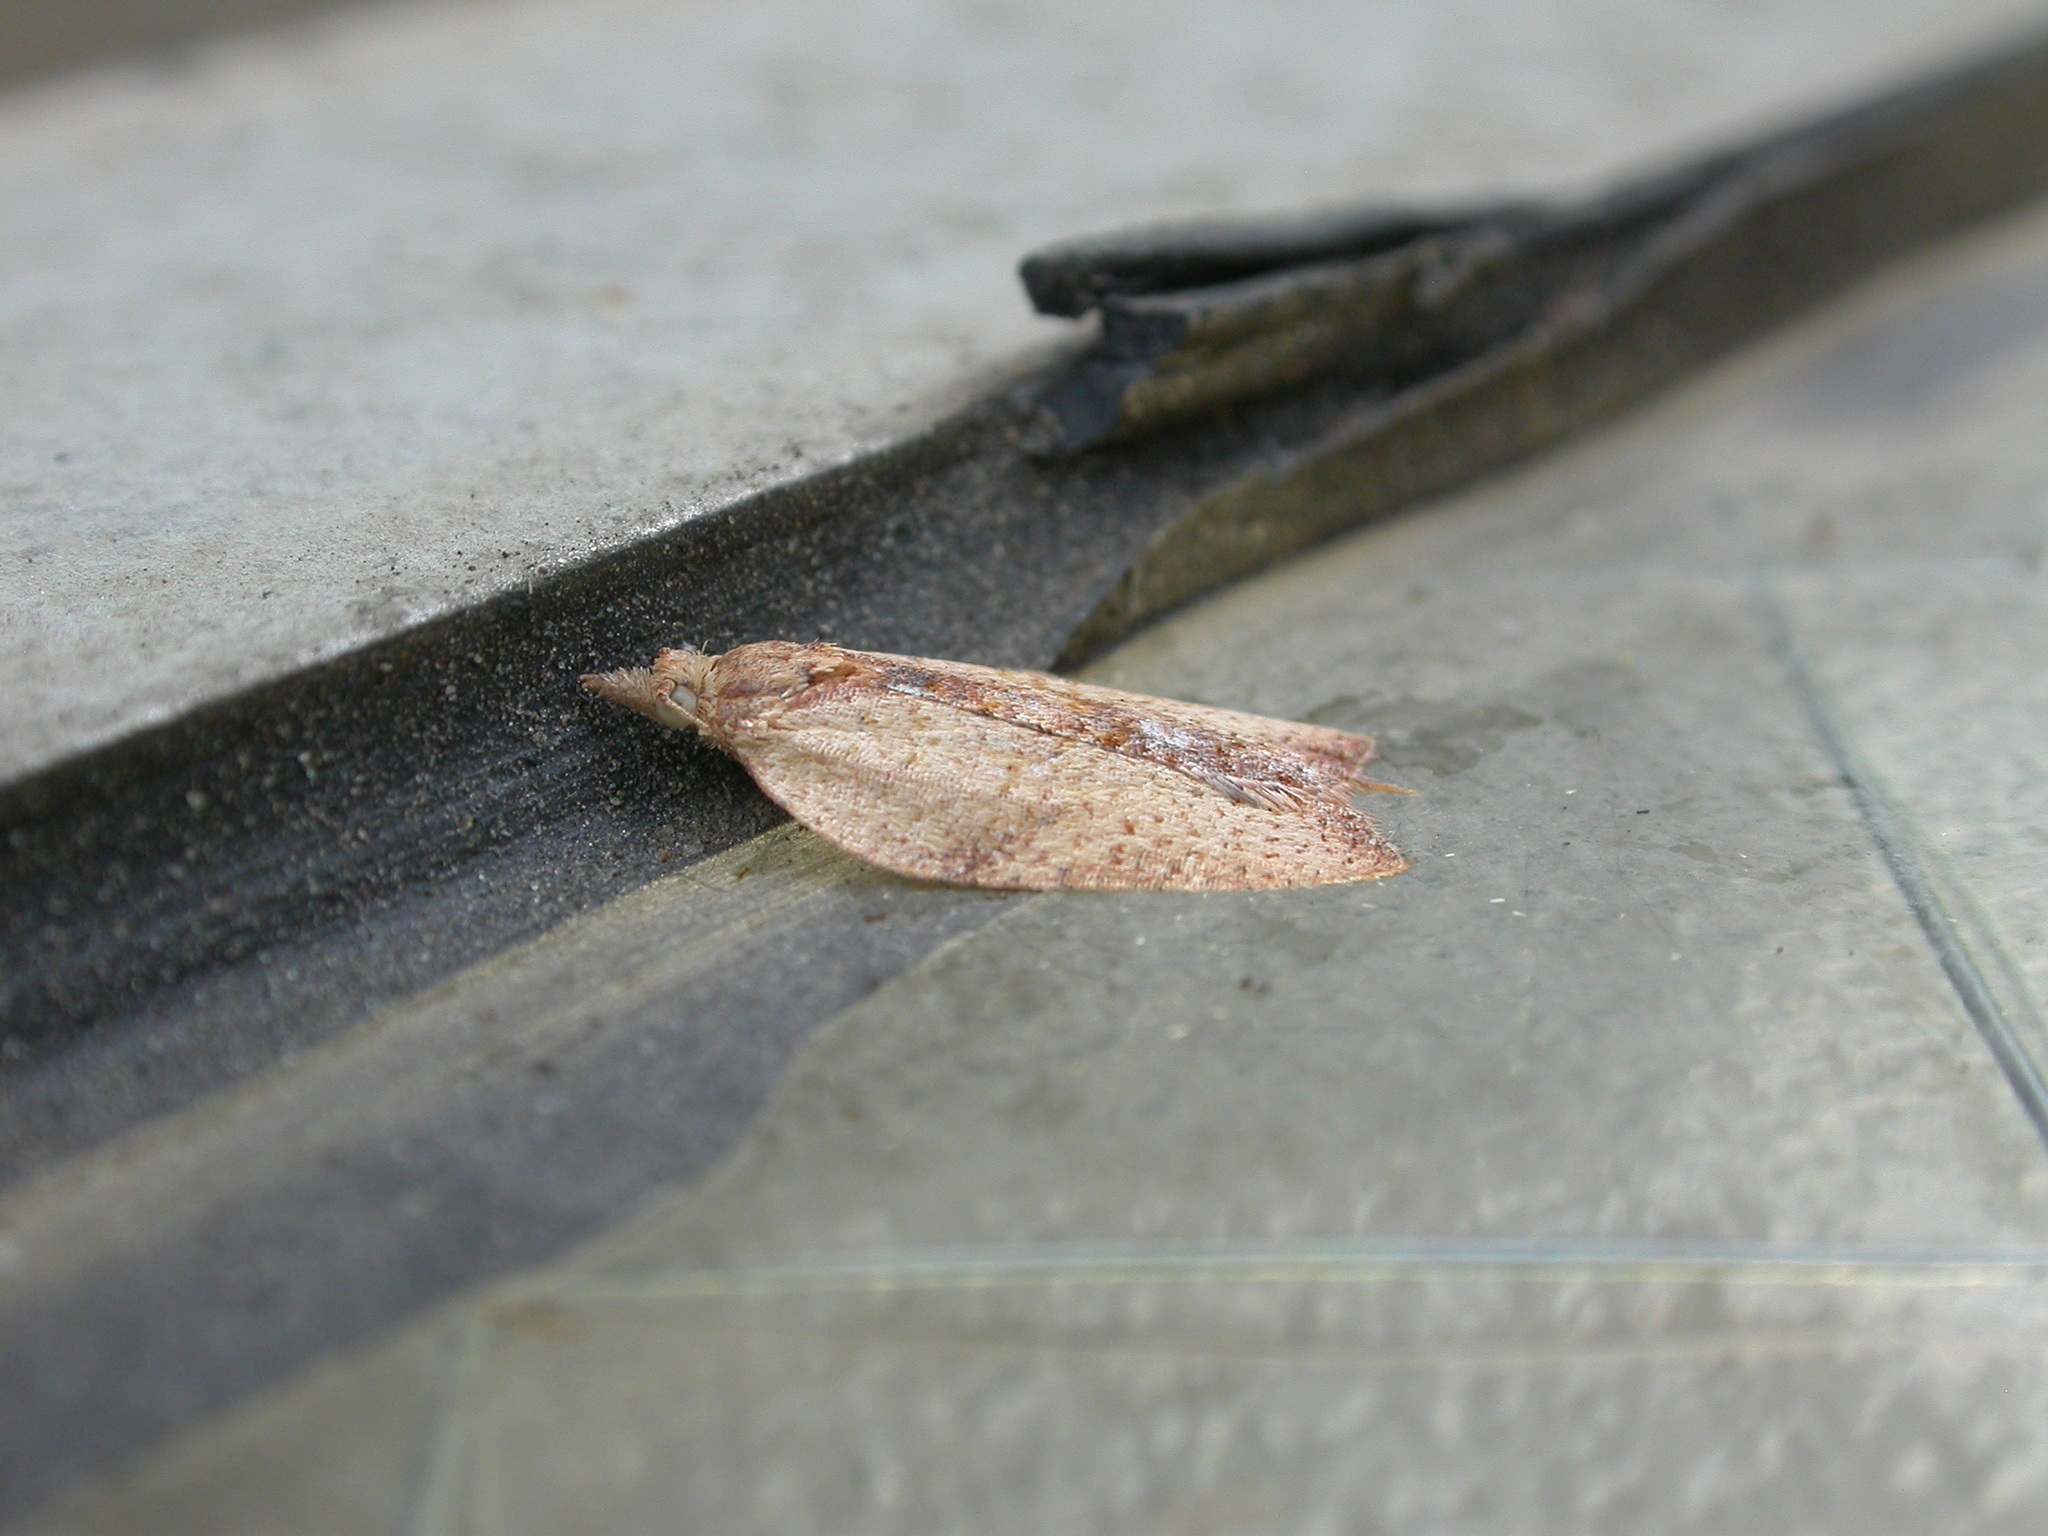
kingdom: Animalia
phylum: Arthropoda
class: Insecta
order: Lepidoptera
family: Tortricidae
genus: Epiphyas
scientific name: Epiphyas postvittana
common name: Light brown apple moth
